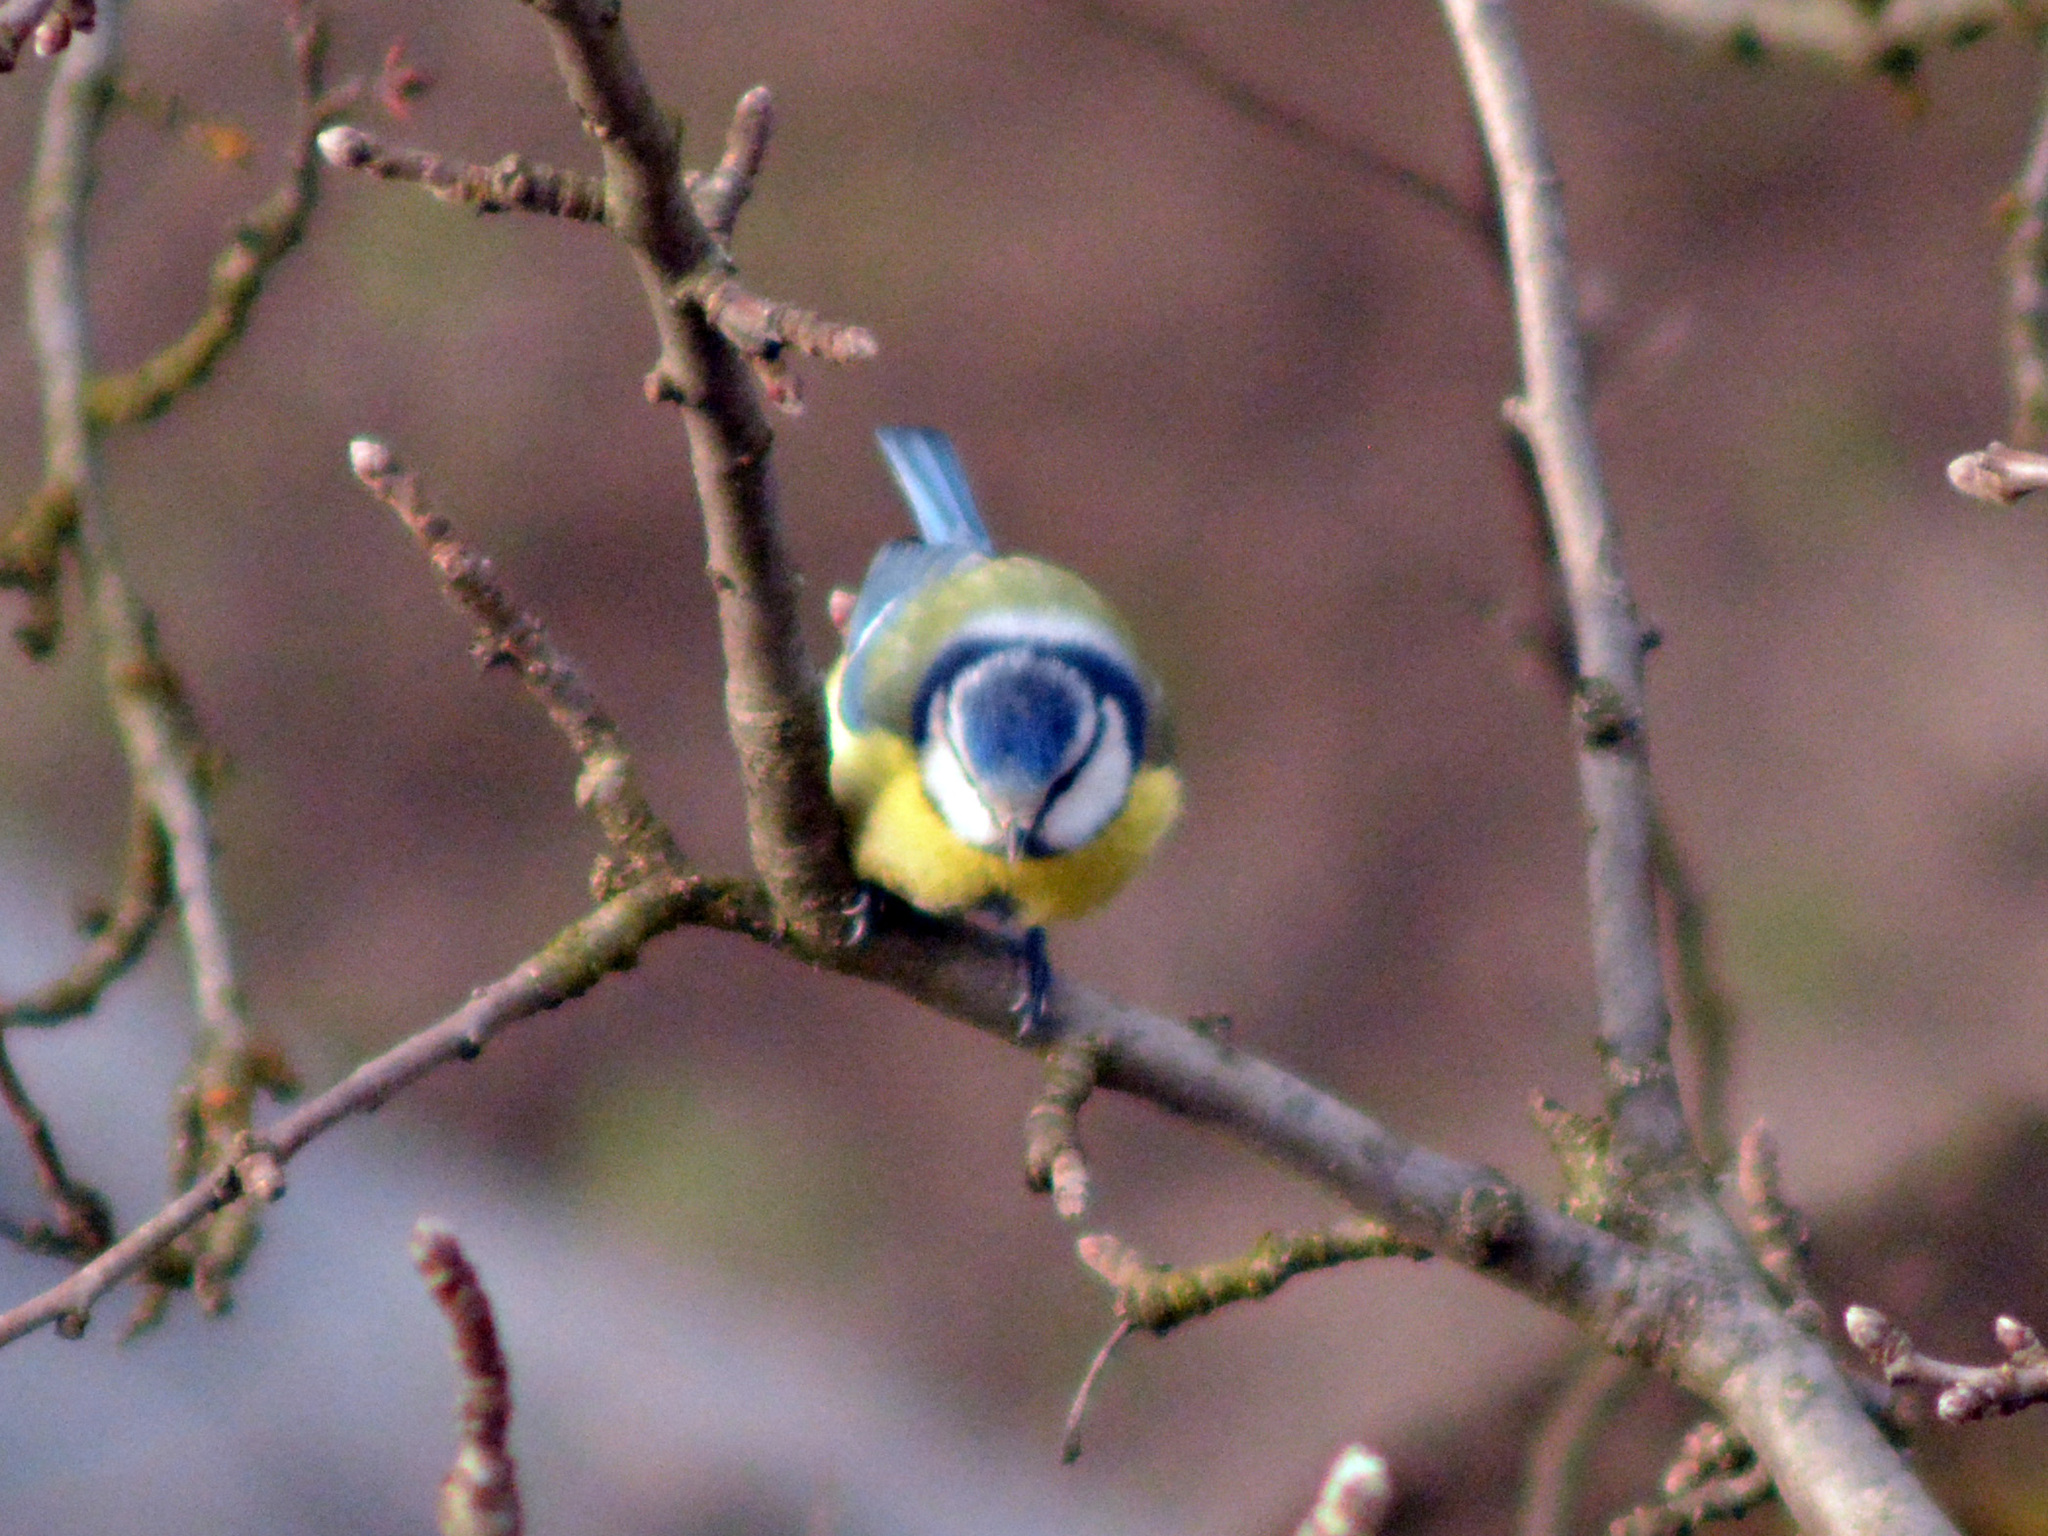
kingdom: Animalia
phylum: Chordata
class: Aves
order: Passeriformes
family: Paridae
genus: Cyanistes
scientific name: Cyanistes caeruleus
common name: Eurasian blue tit
